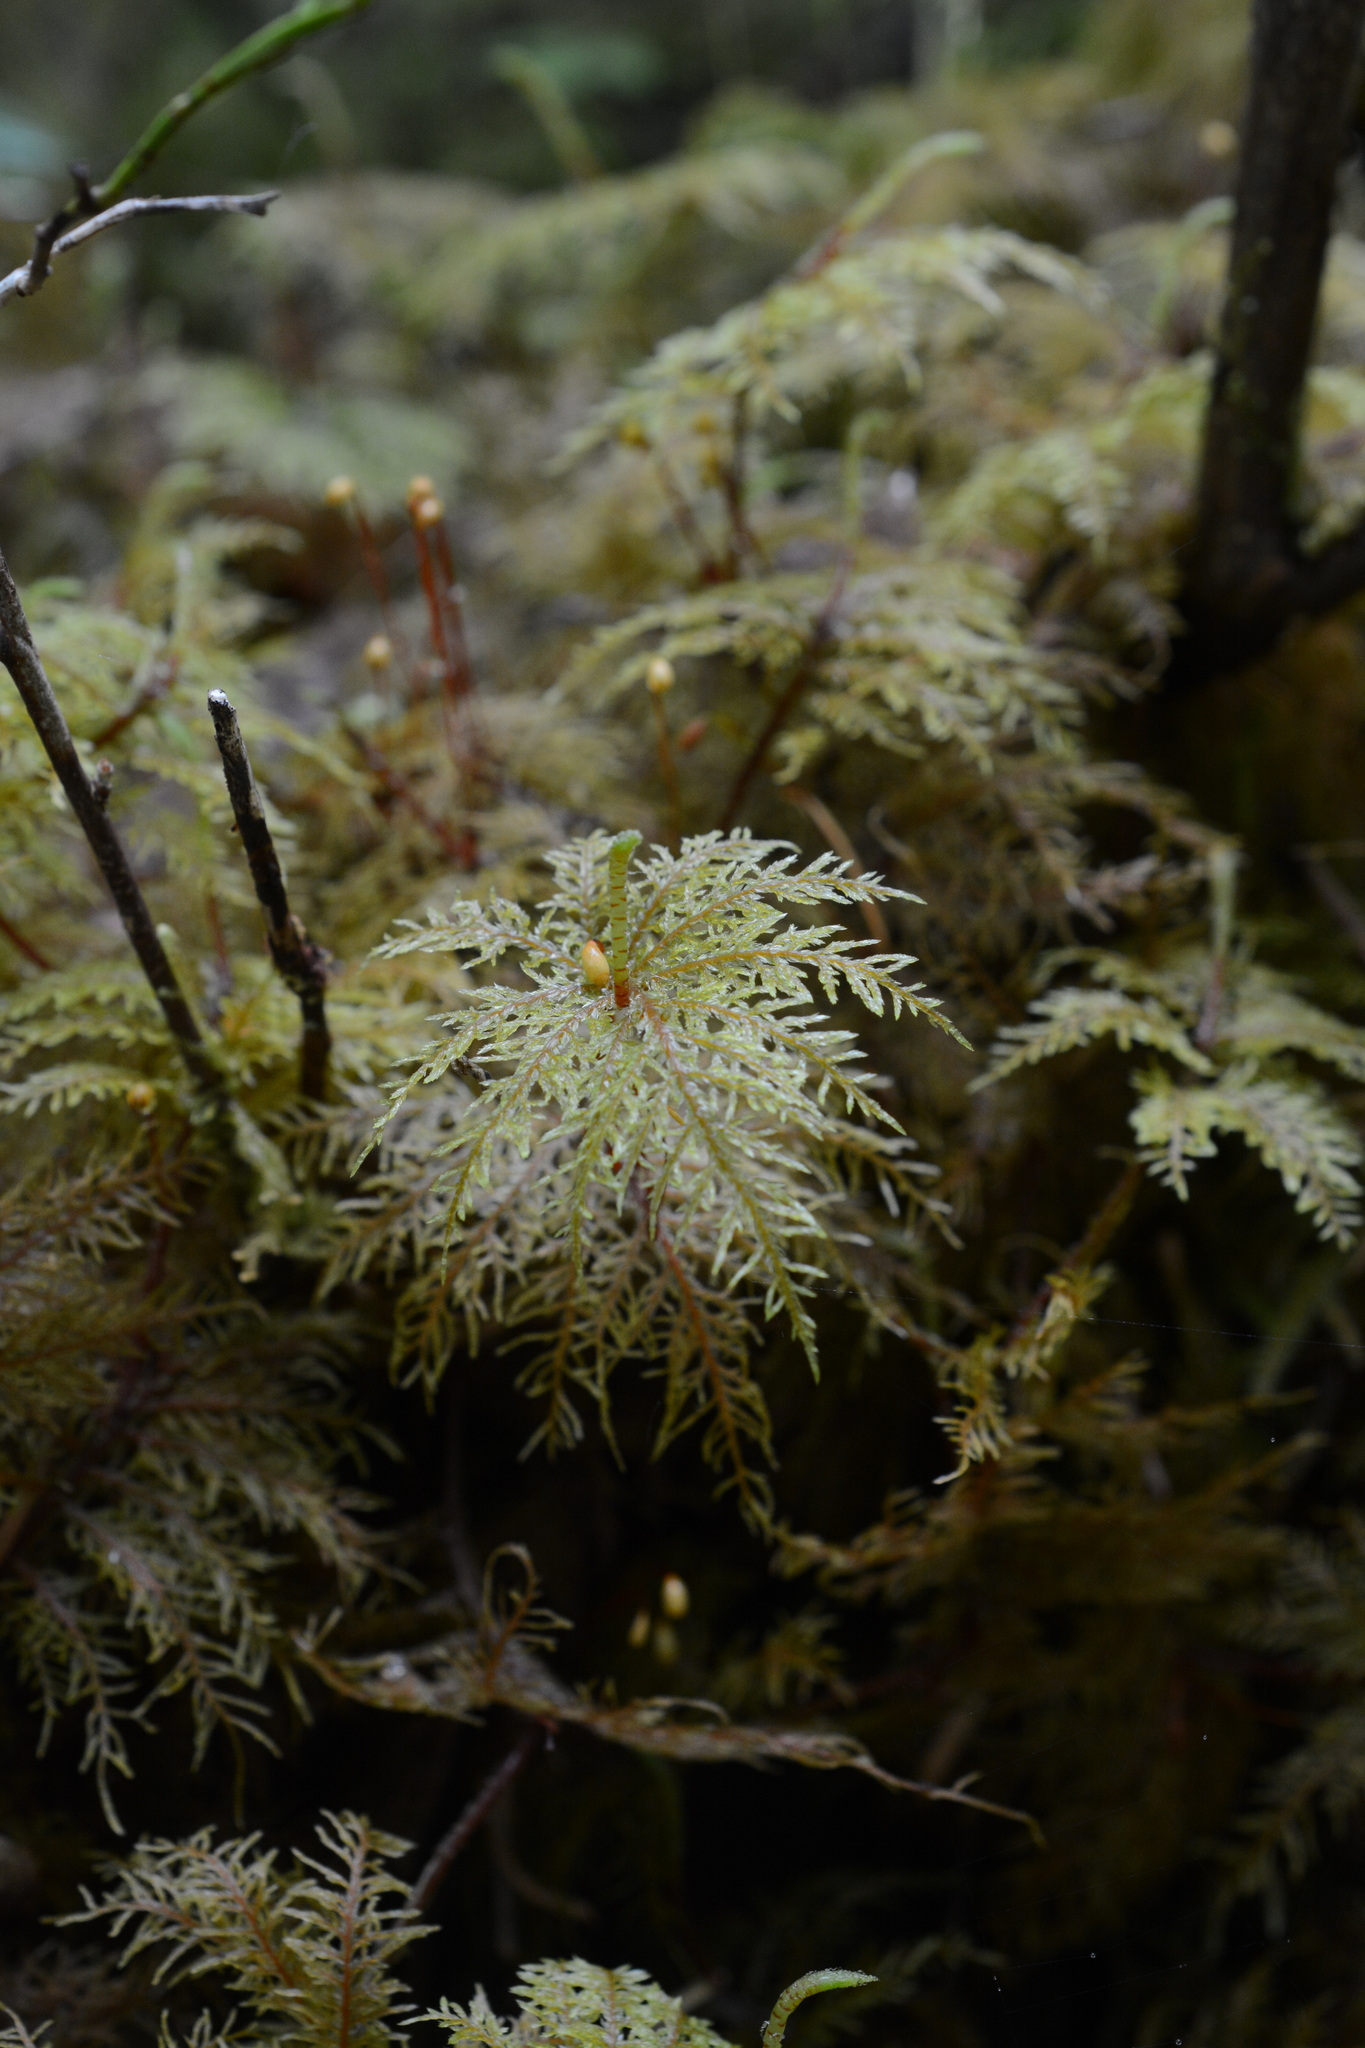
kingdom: Plantae
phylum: Bryophyta
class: Bryopsida
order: Hypnales
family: Hylocomiaceae
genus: Hylocomium
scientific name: Hylocomium splendens
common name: Stairstep moss
